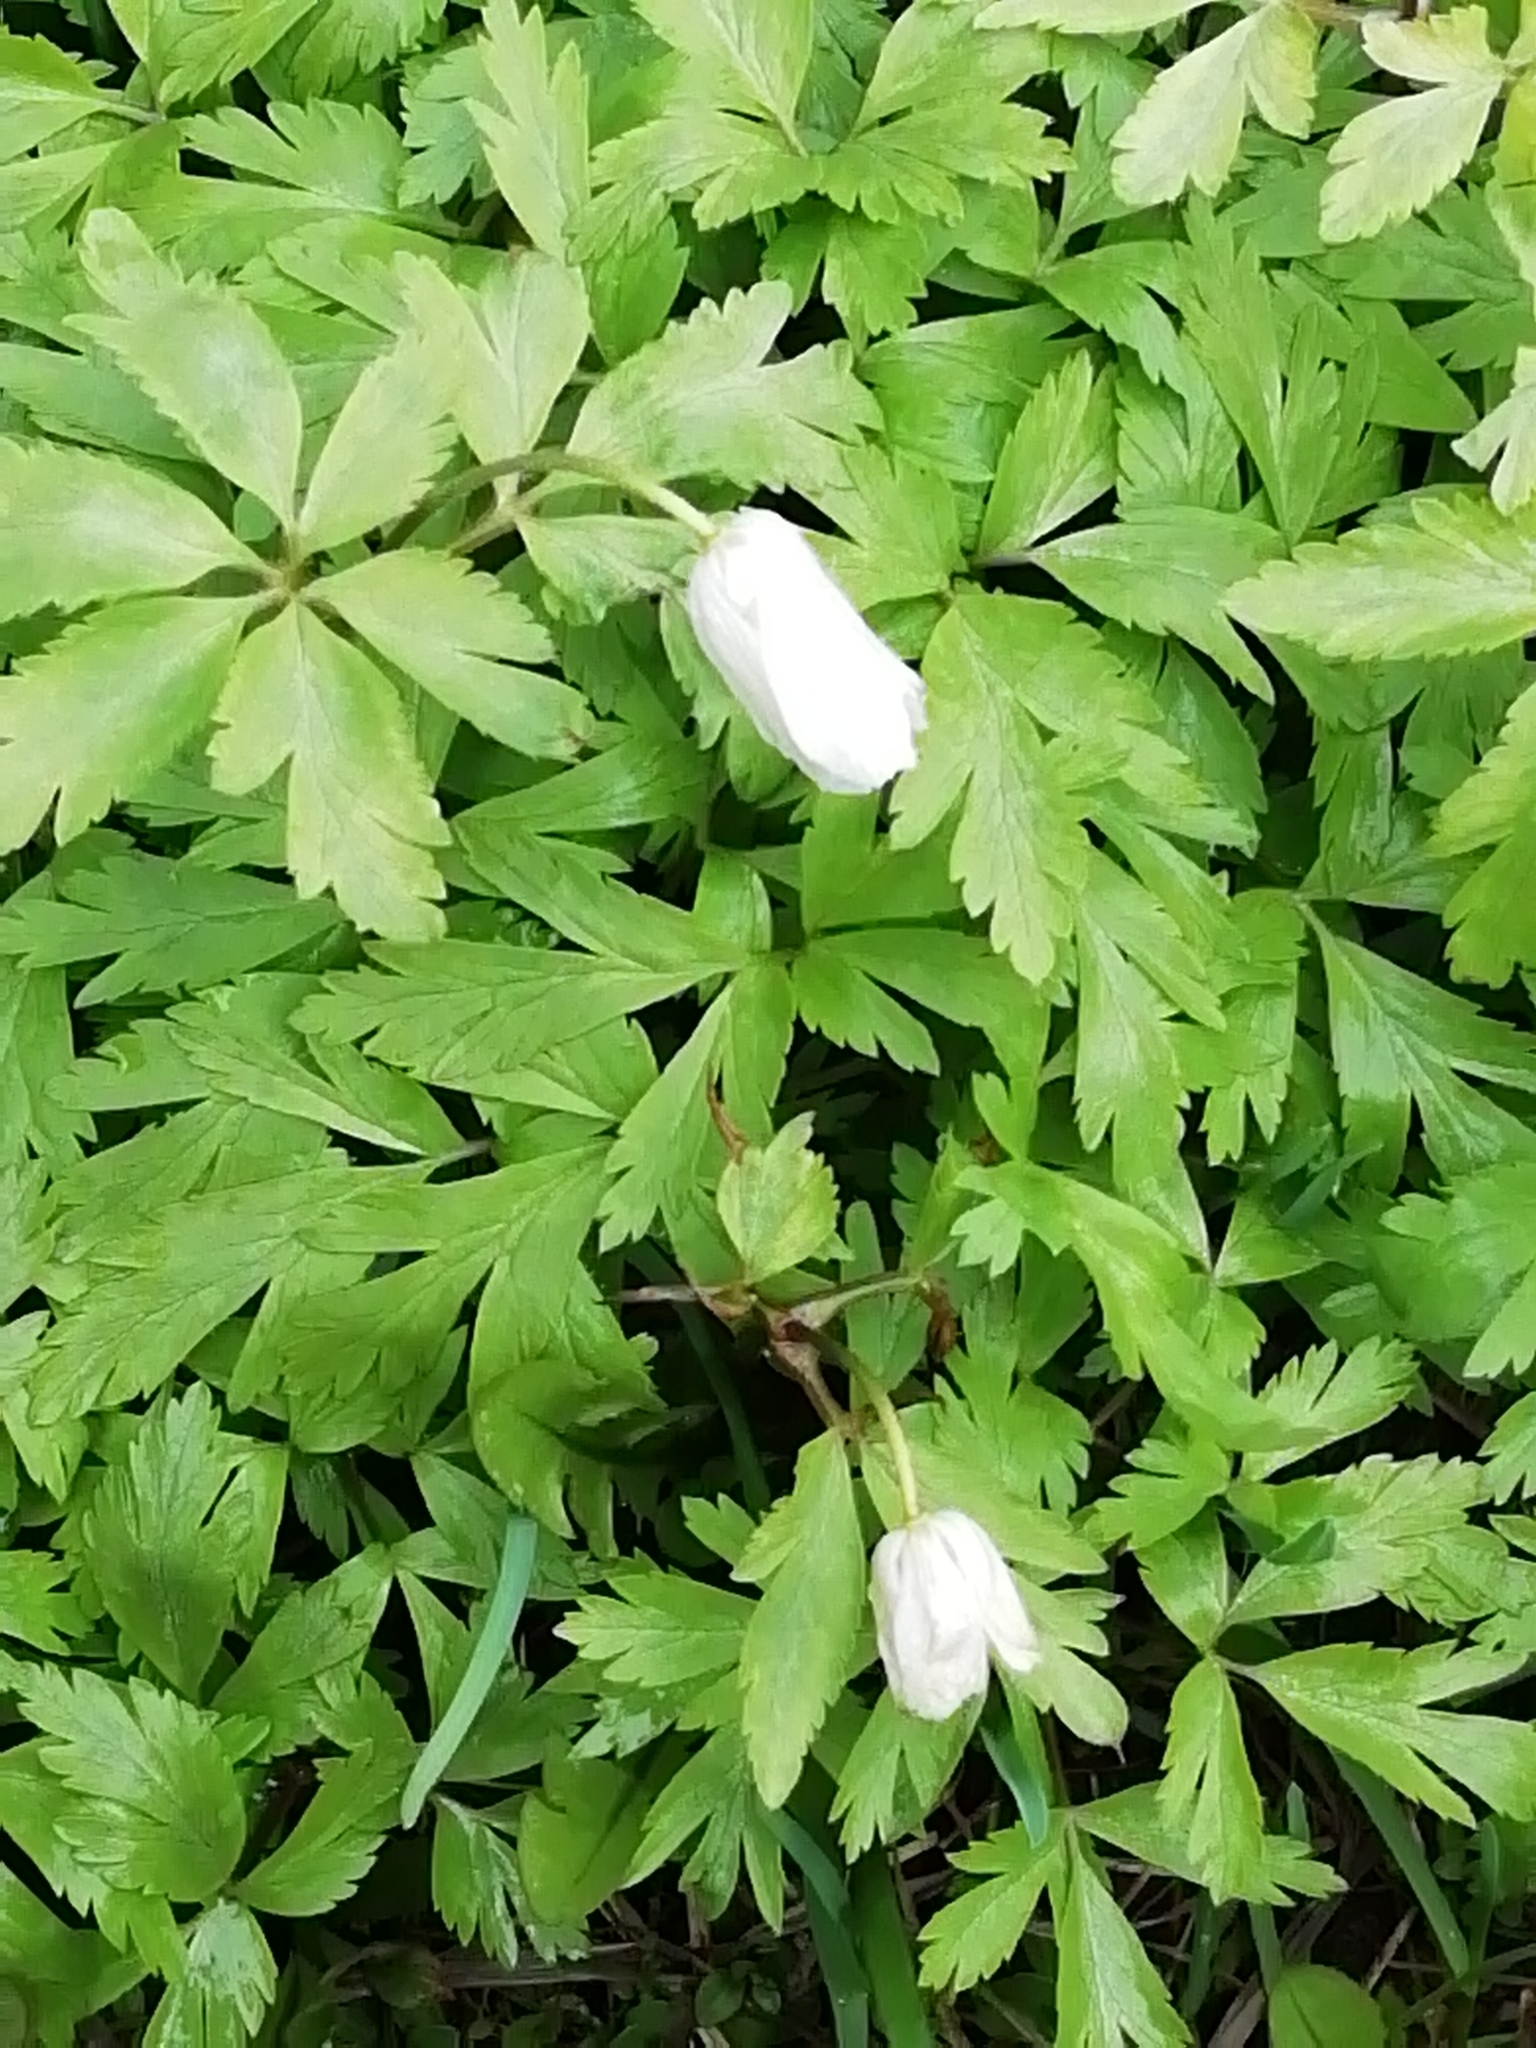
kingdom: Plantae
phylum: Tracheophyta
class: Magnoliopsida
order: Ranunculales
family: Ranunculaceae
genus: Anemone
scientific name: Anemone altaica
